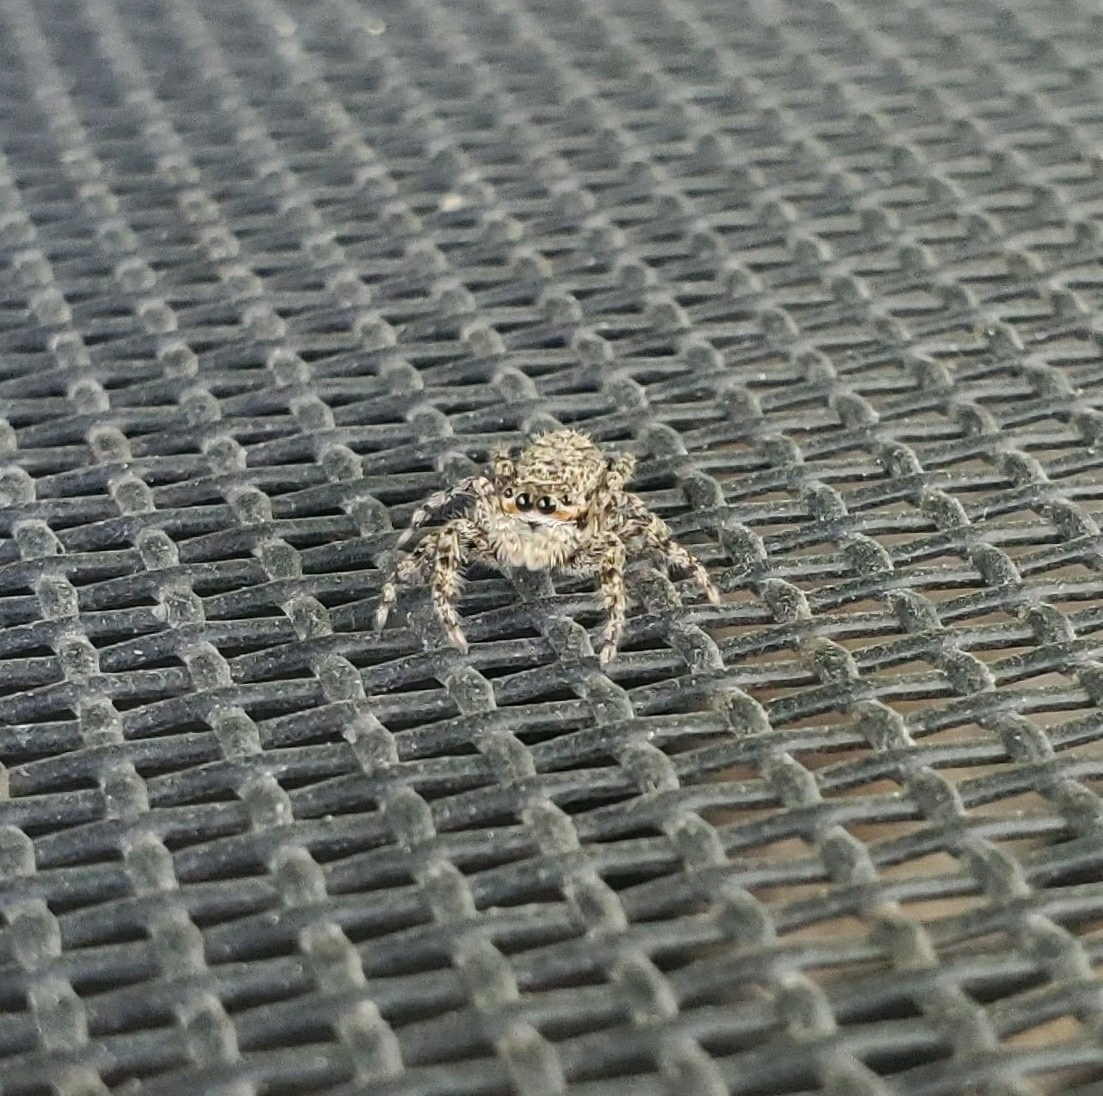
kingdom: Animalia
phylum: Arthropoda
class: Arachnida
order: Araneae
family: Salticidae
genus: Platycryptus
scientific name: Platycryptus undatus
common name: Tan jumping spider
